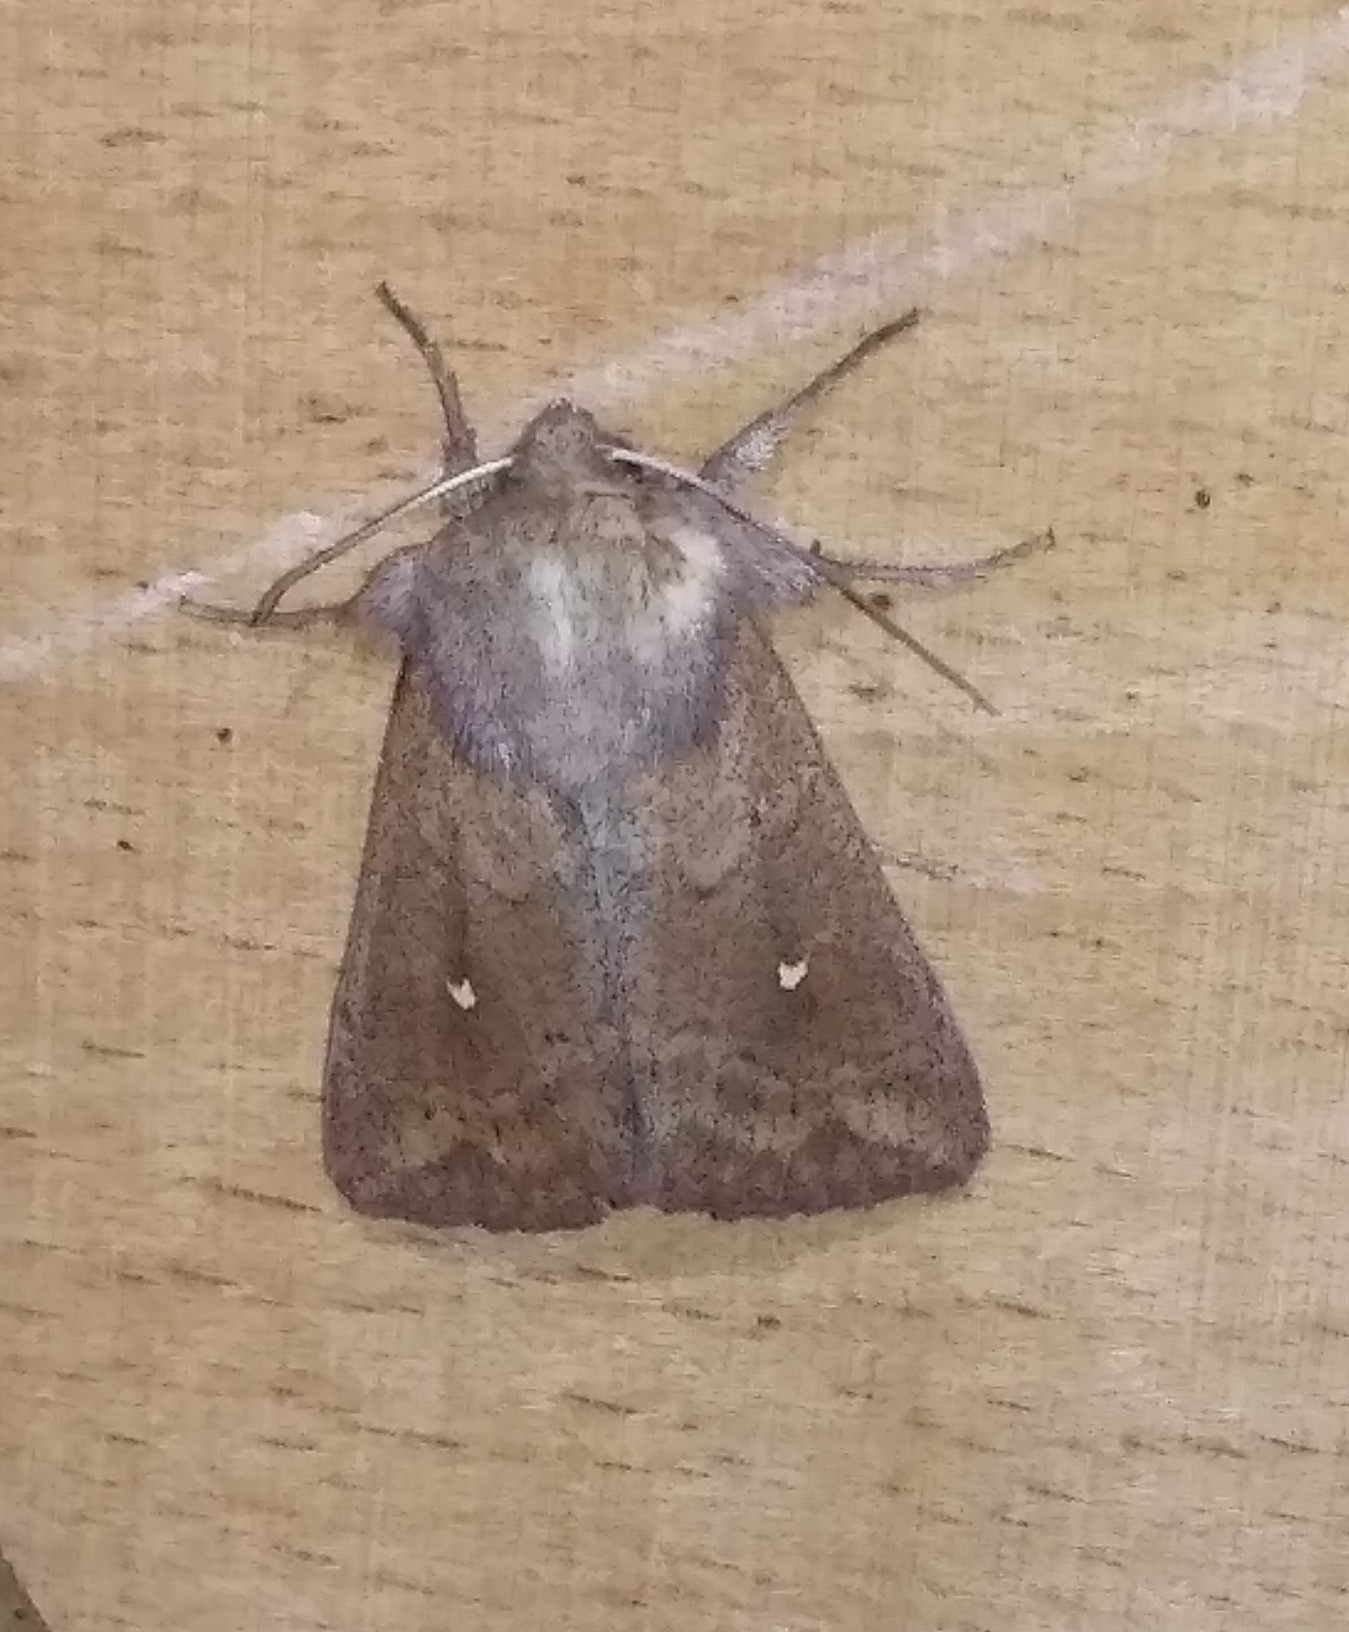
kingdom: Animalia
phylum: Arthropoda
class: Insecta
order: Lepidoptera
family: Noctuidae
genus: Mythimna
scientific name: Mythimna albipuncta
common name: White-point
